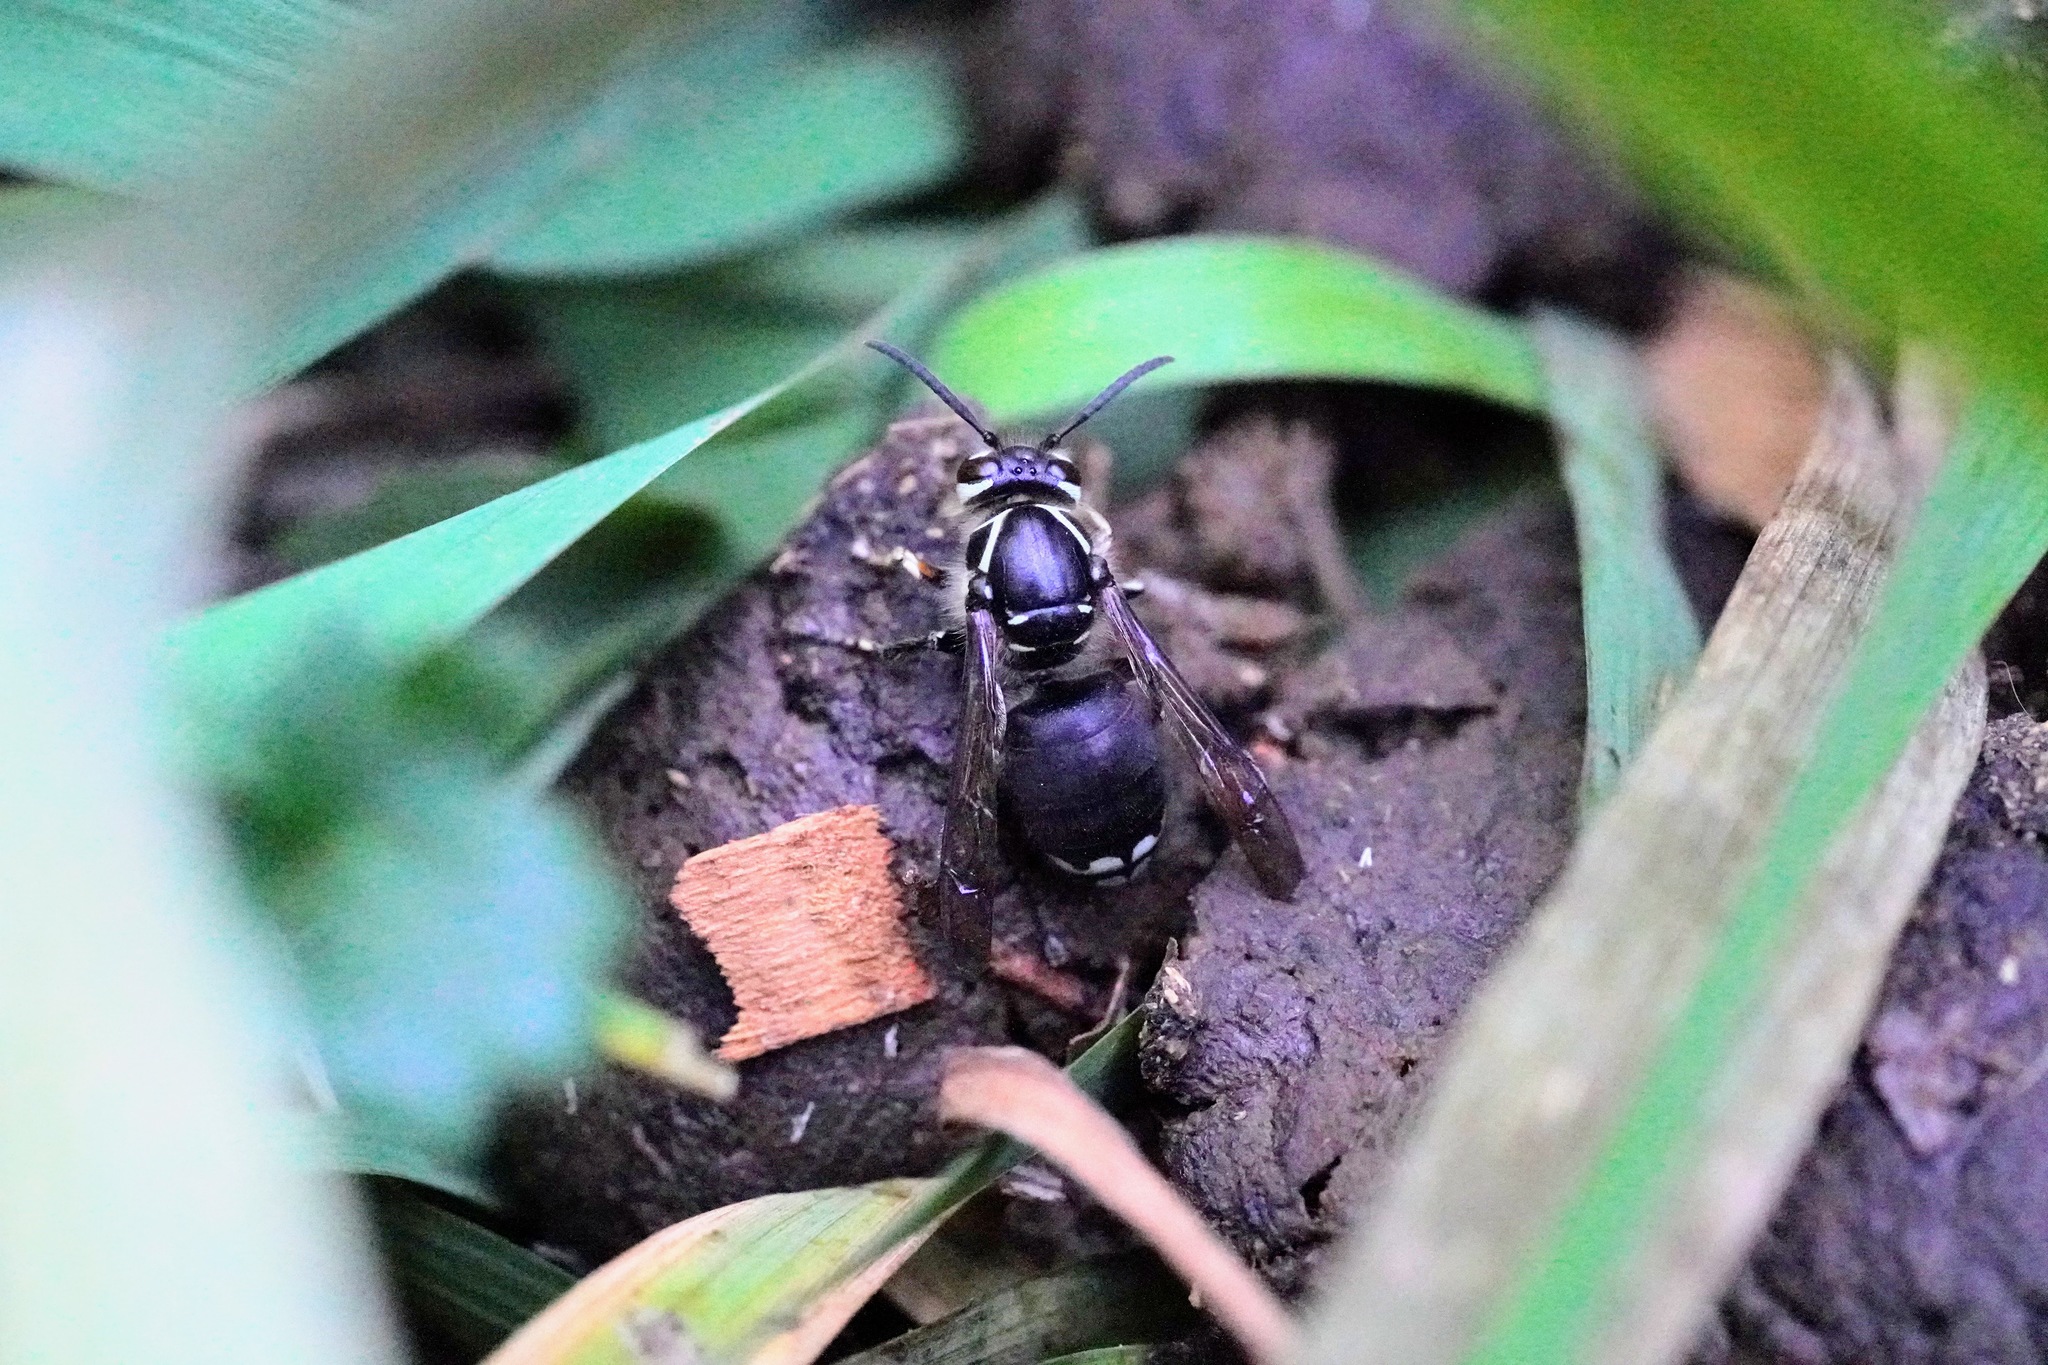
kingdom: Animalia
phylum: Arthropoda
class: Insecta
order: Hymenoptera
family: Vespidae
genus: Dolichovespula
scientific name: Dolichovespula maculata
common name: Bald-faced hornet
